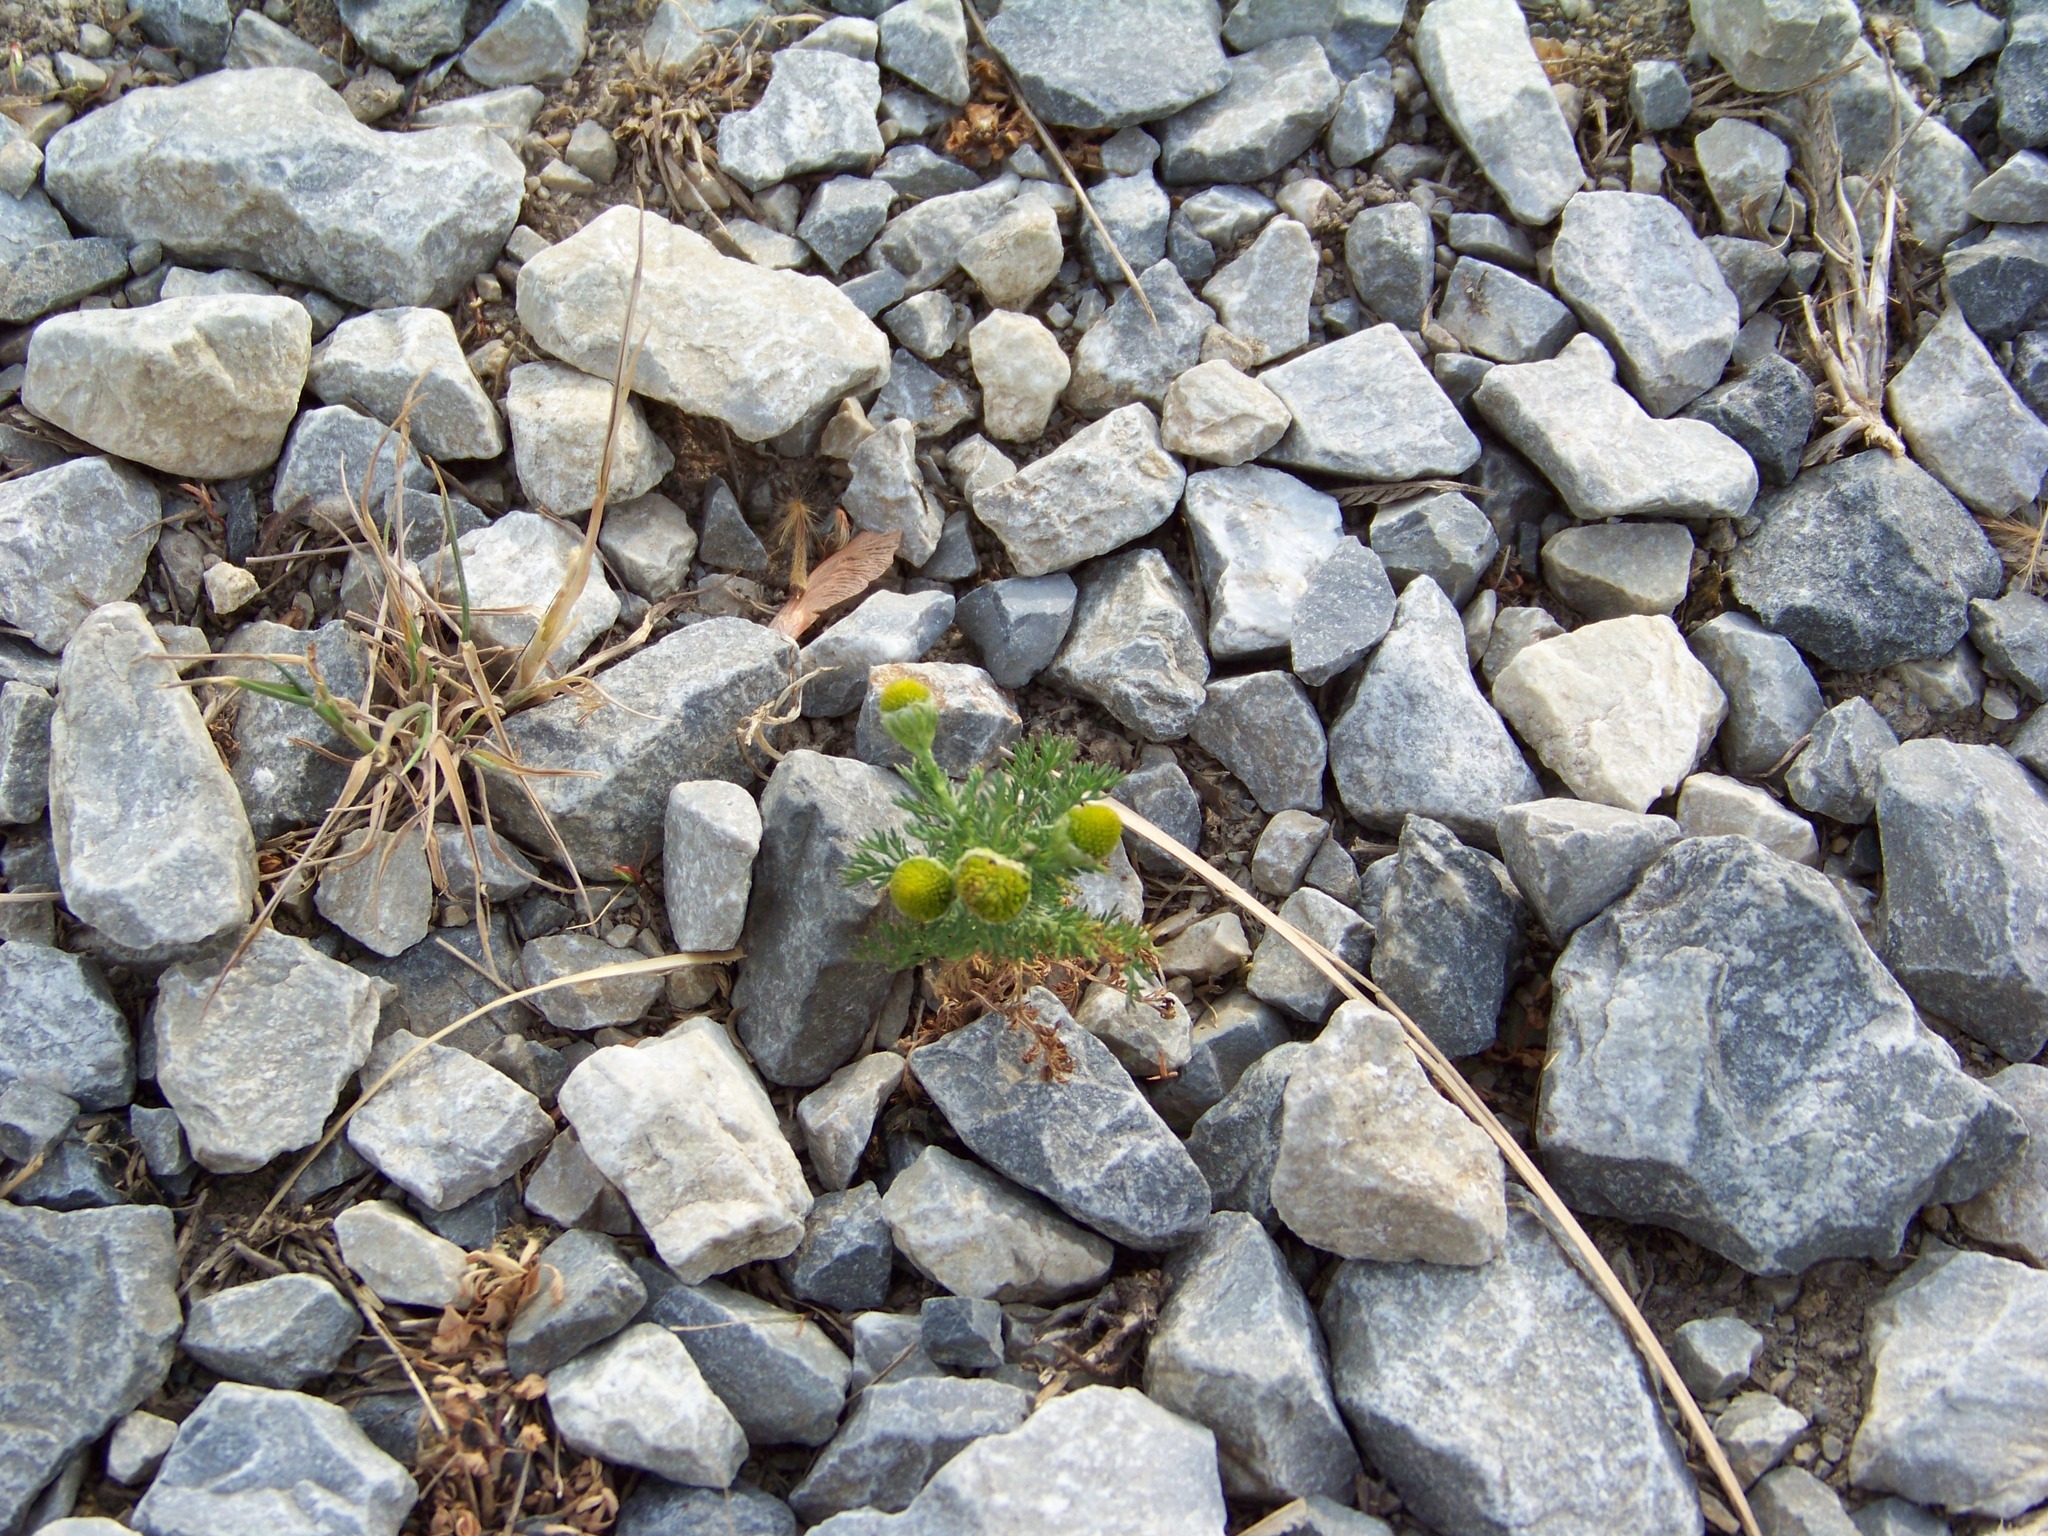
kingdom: Plantae
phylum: Tracheophyta
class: Magnoliopsida
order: Asterales
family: Asteraceae
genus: Matricaria
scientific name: Matricaria discoidea
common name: Disc mayweed
